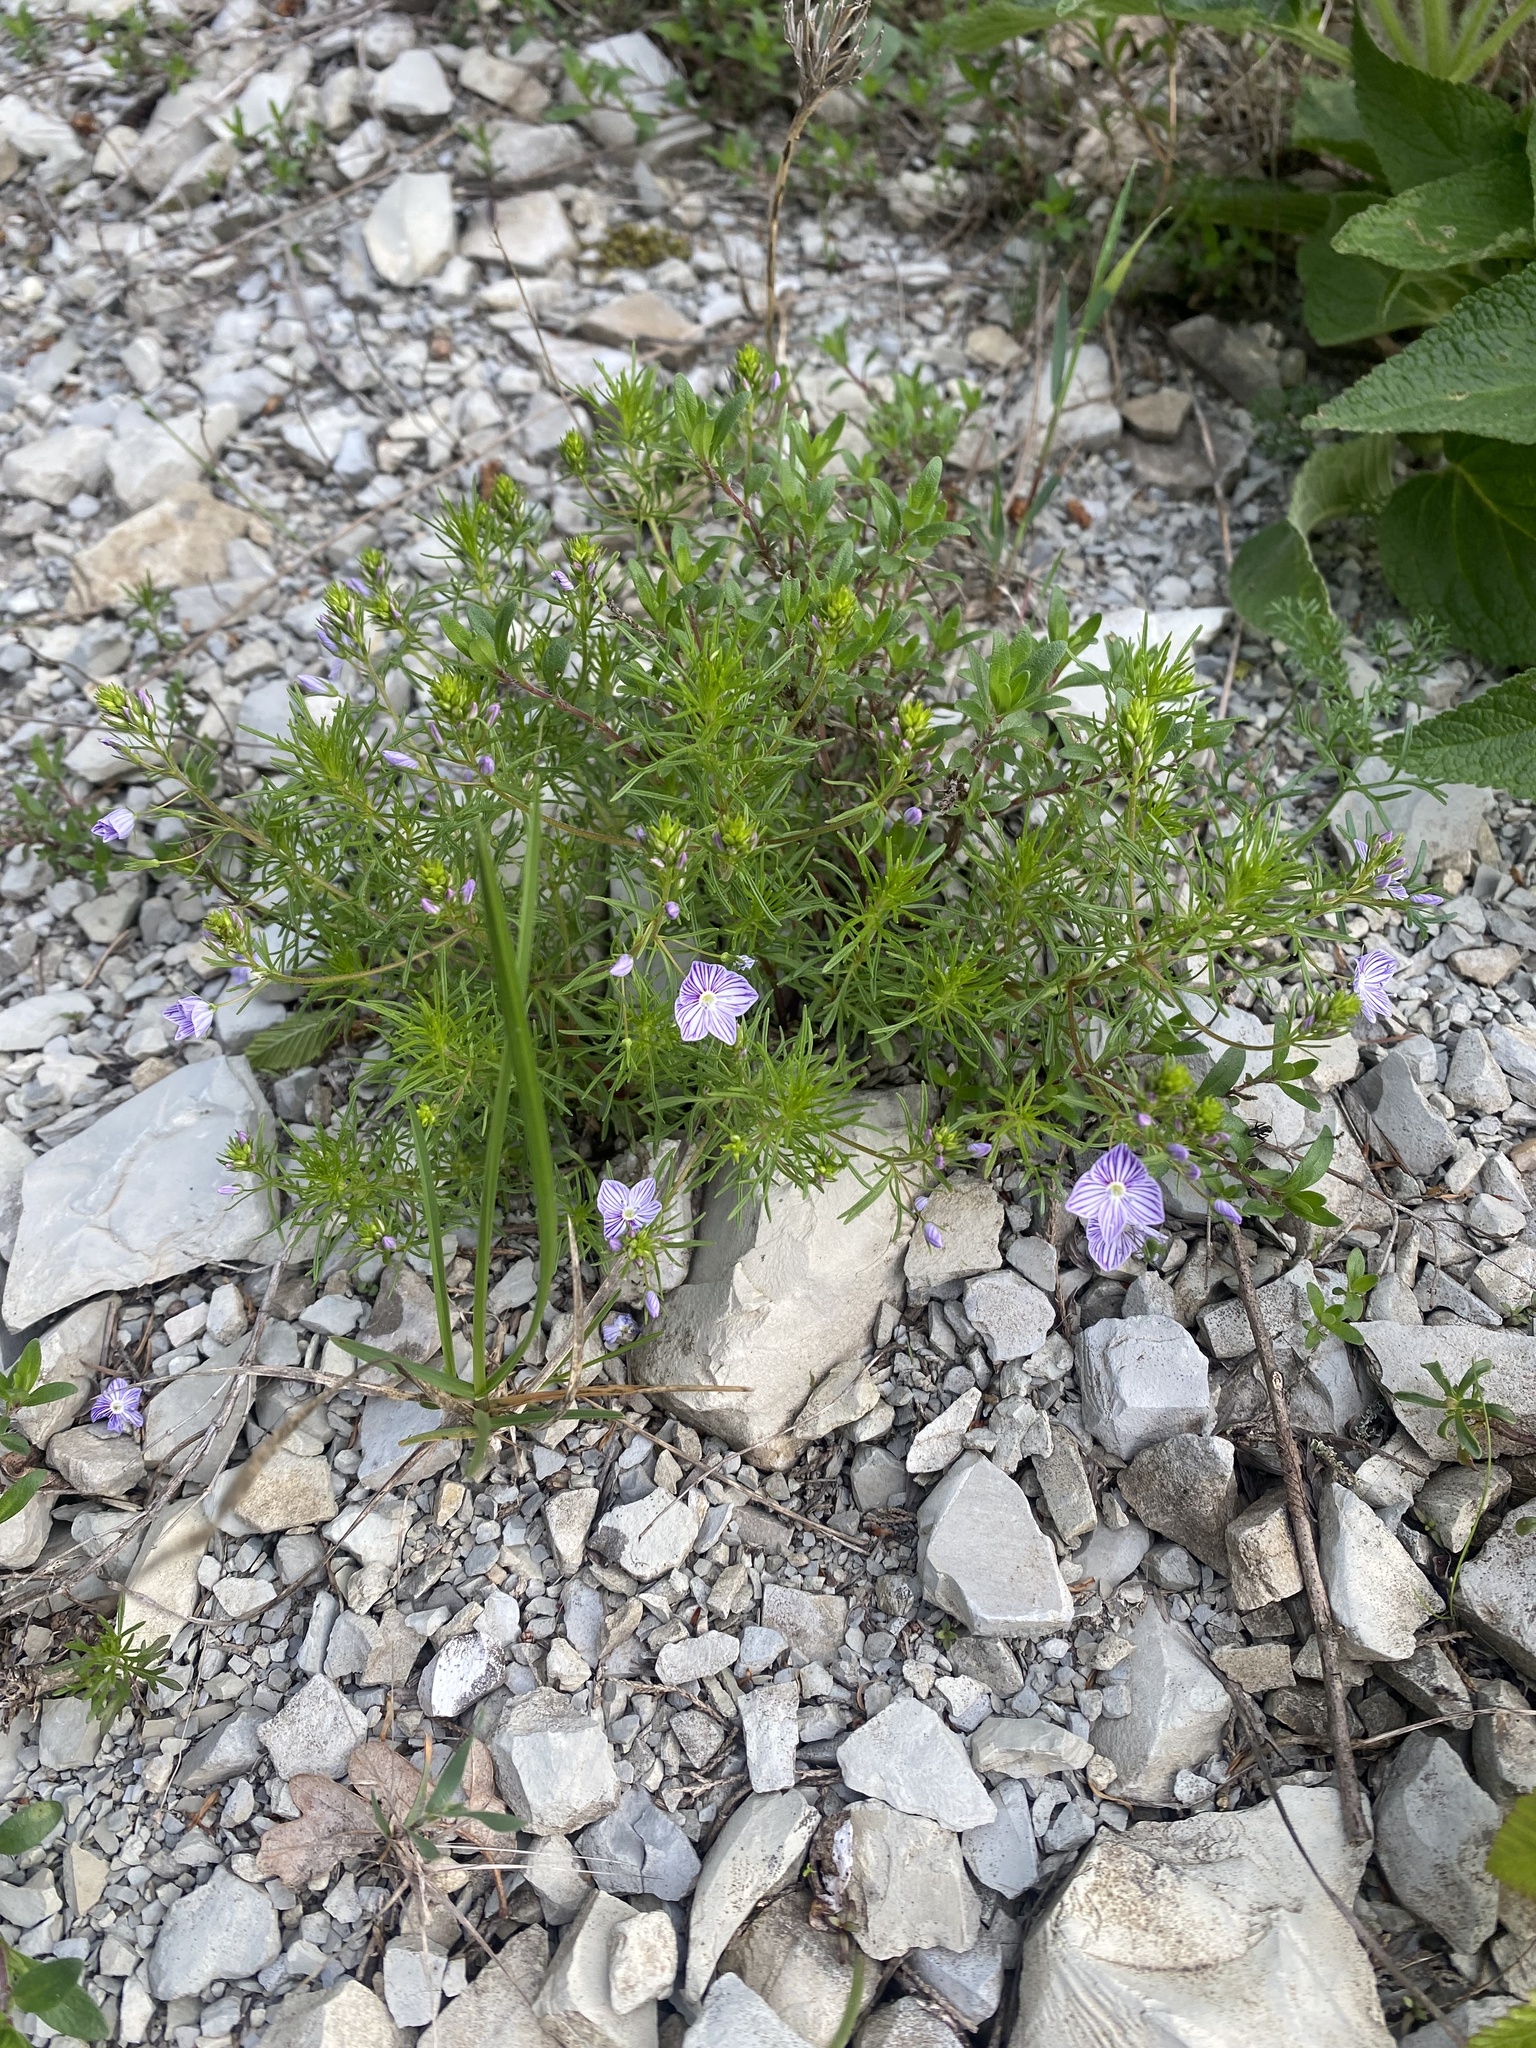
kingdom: Plantae
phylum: Tracheophyta
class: Magnoliopsida
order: Lamiales
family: Plantaginaceae
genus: Veronica
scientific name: Veronica filifolia
